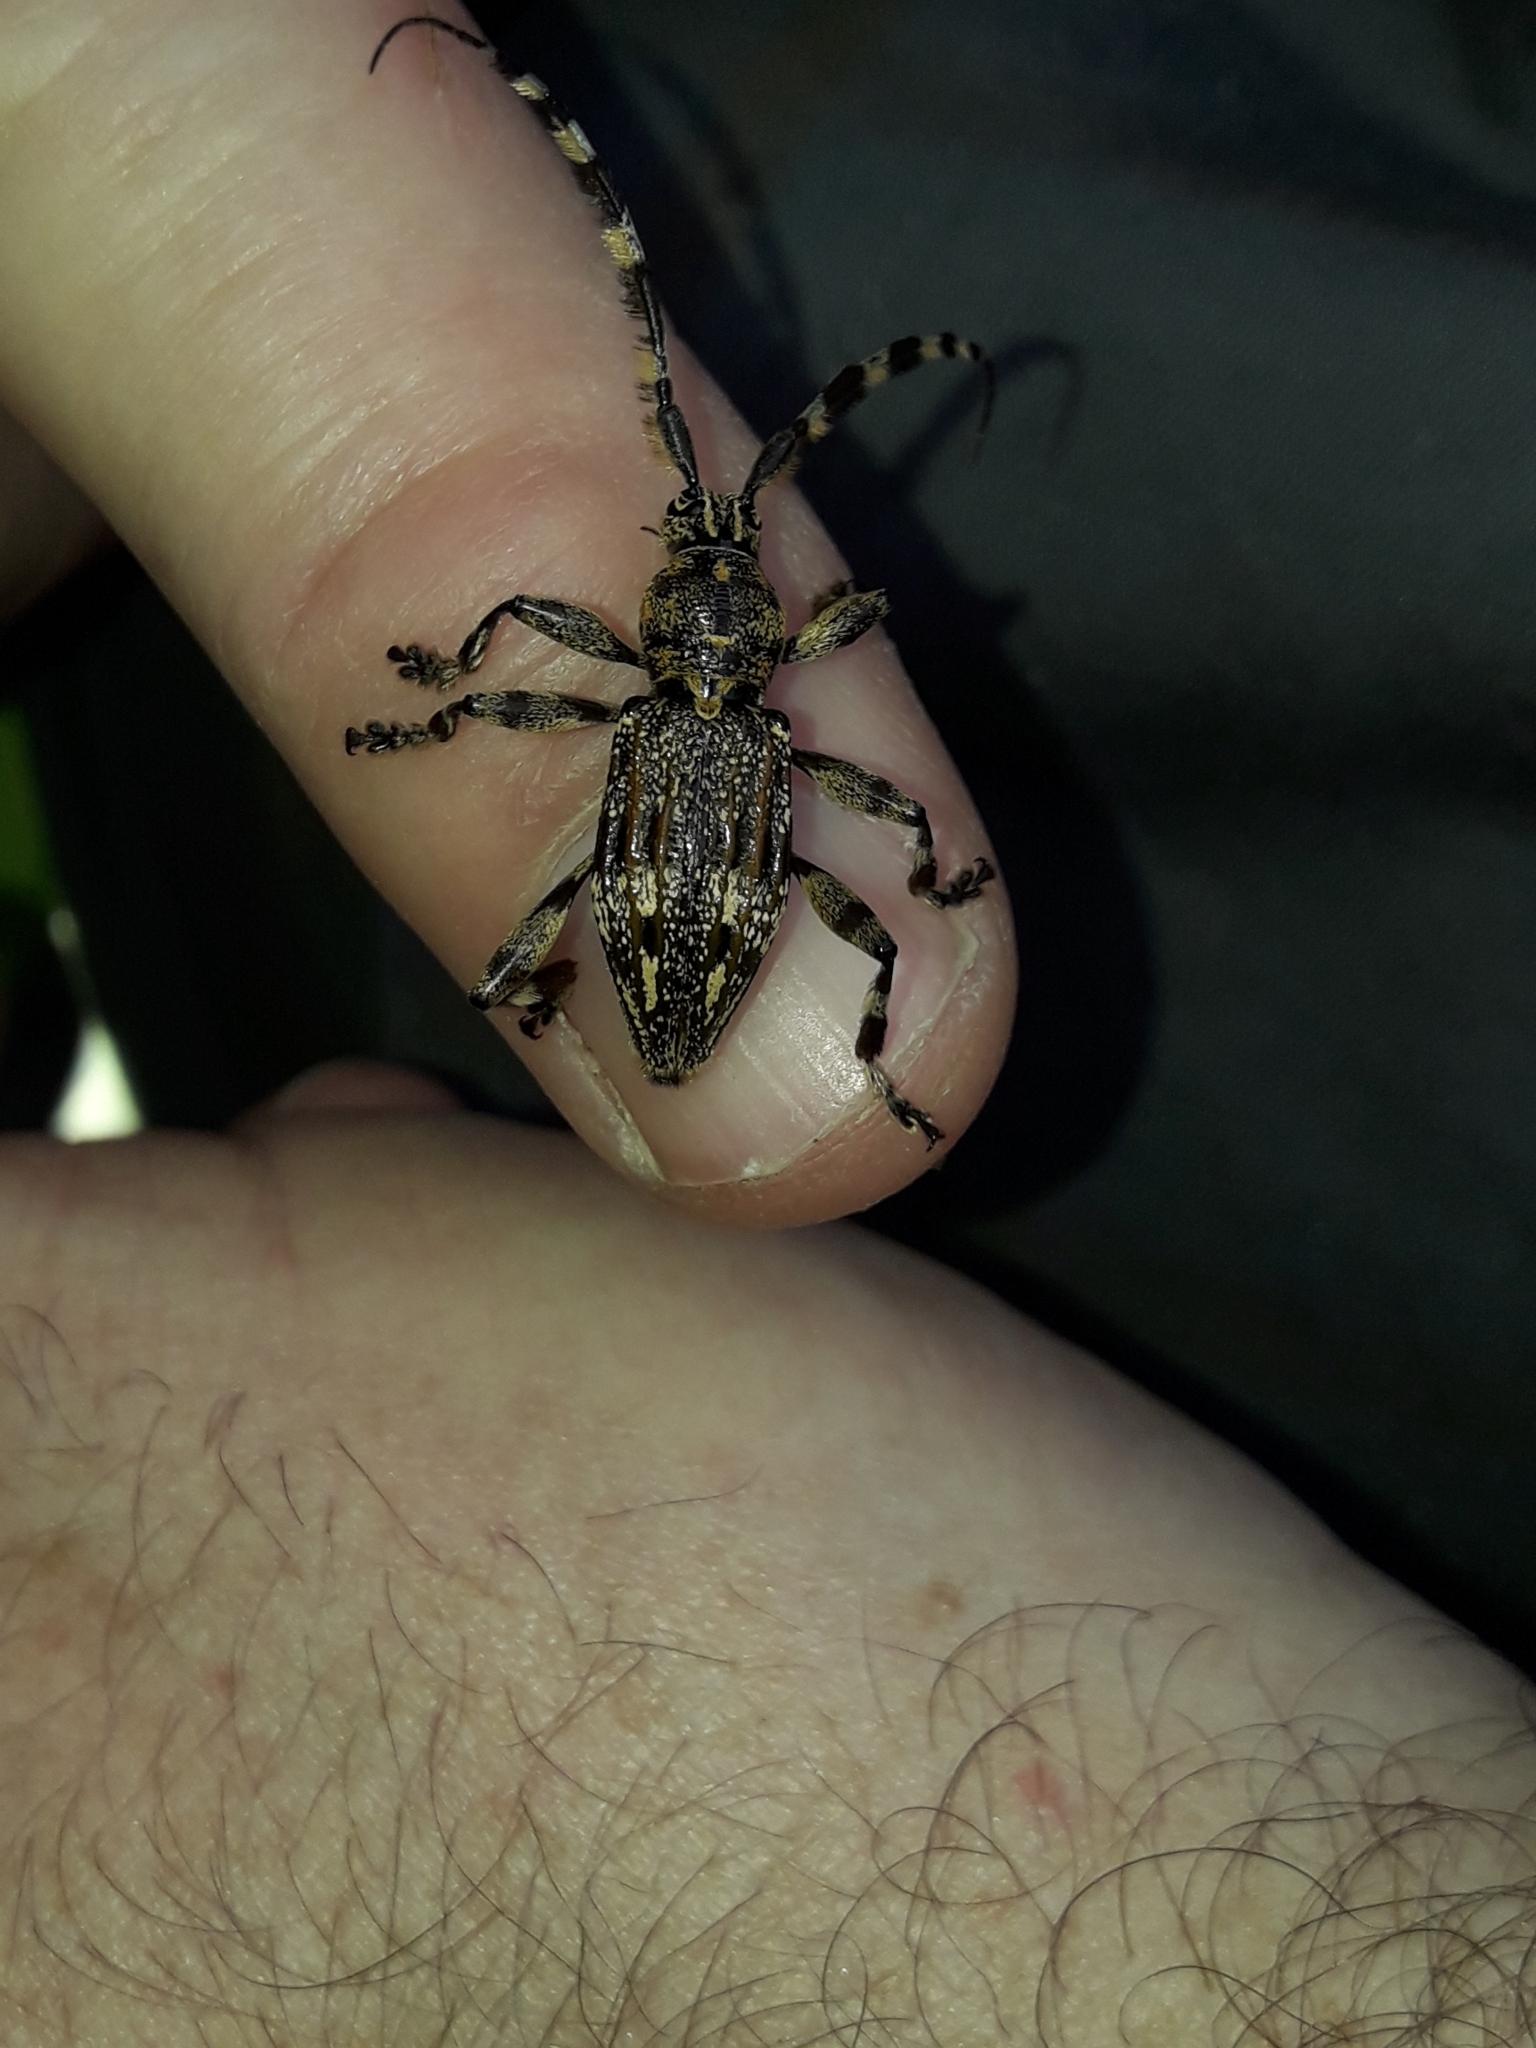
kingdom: Animalia
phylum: Arthropoda
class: Insecta
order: Coleoptera
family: Cerambycidae
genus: Hexatricha
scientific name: Hexatricha pulverulenta
